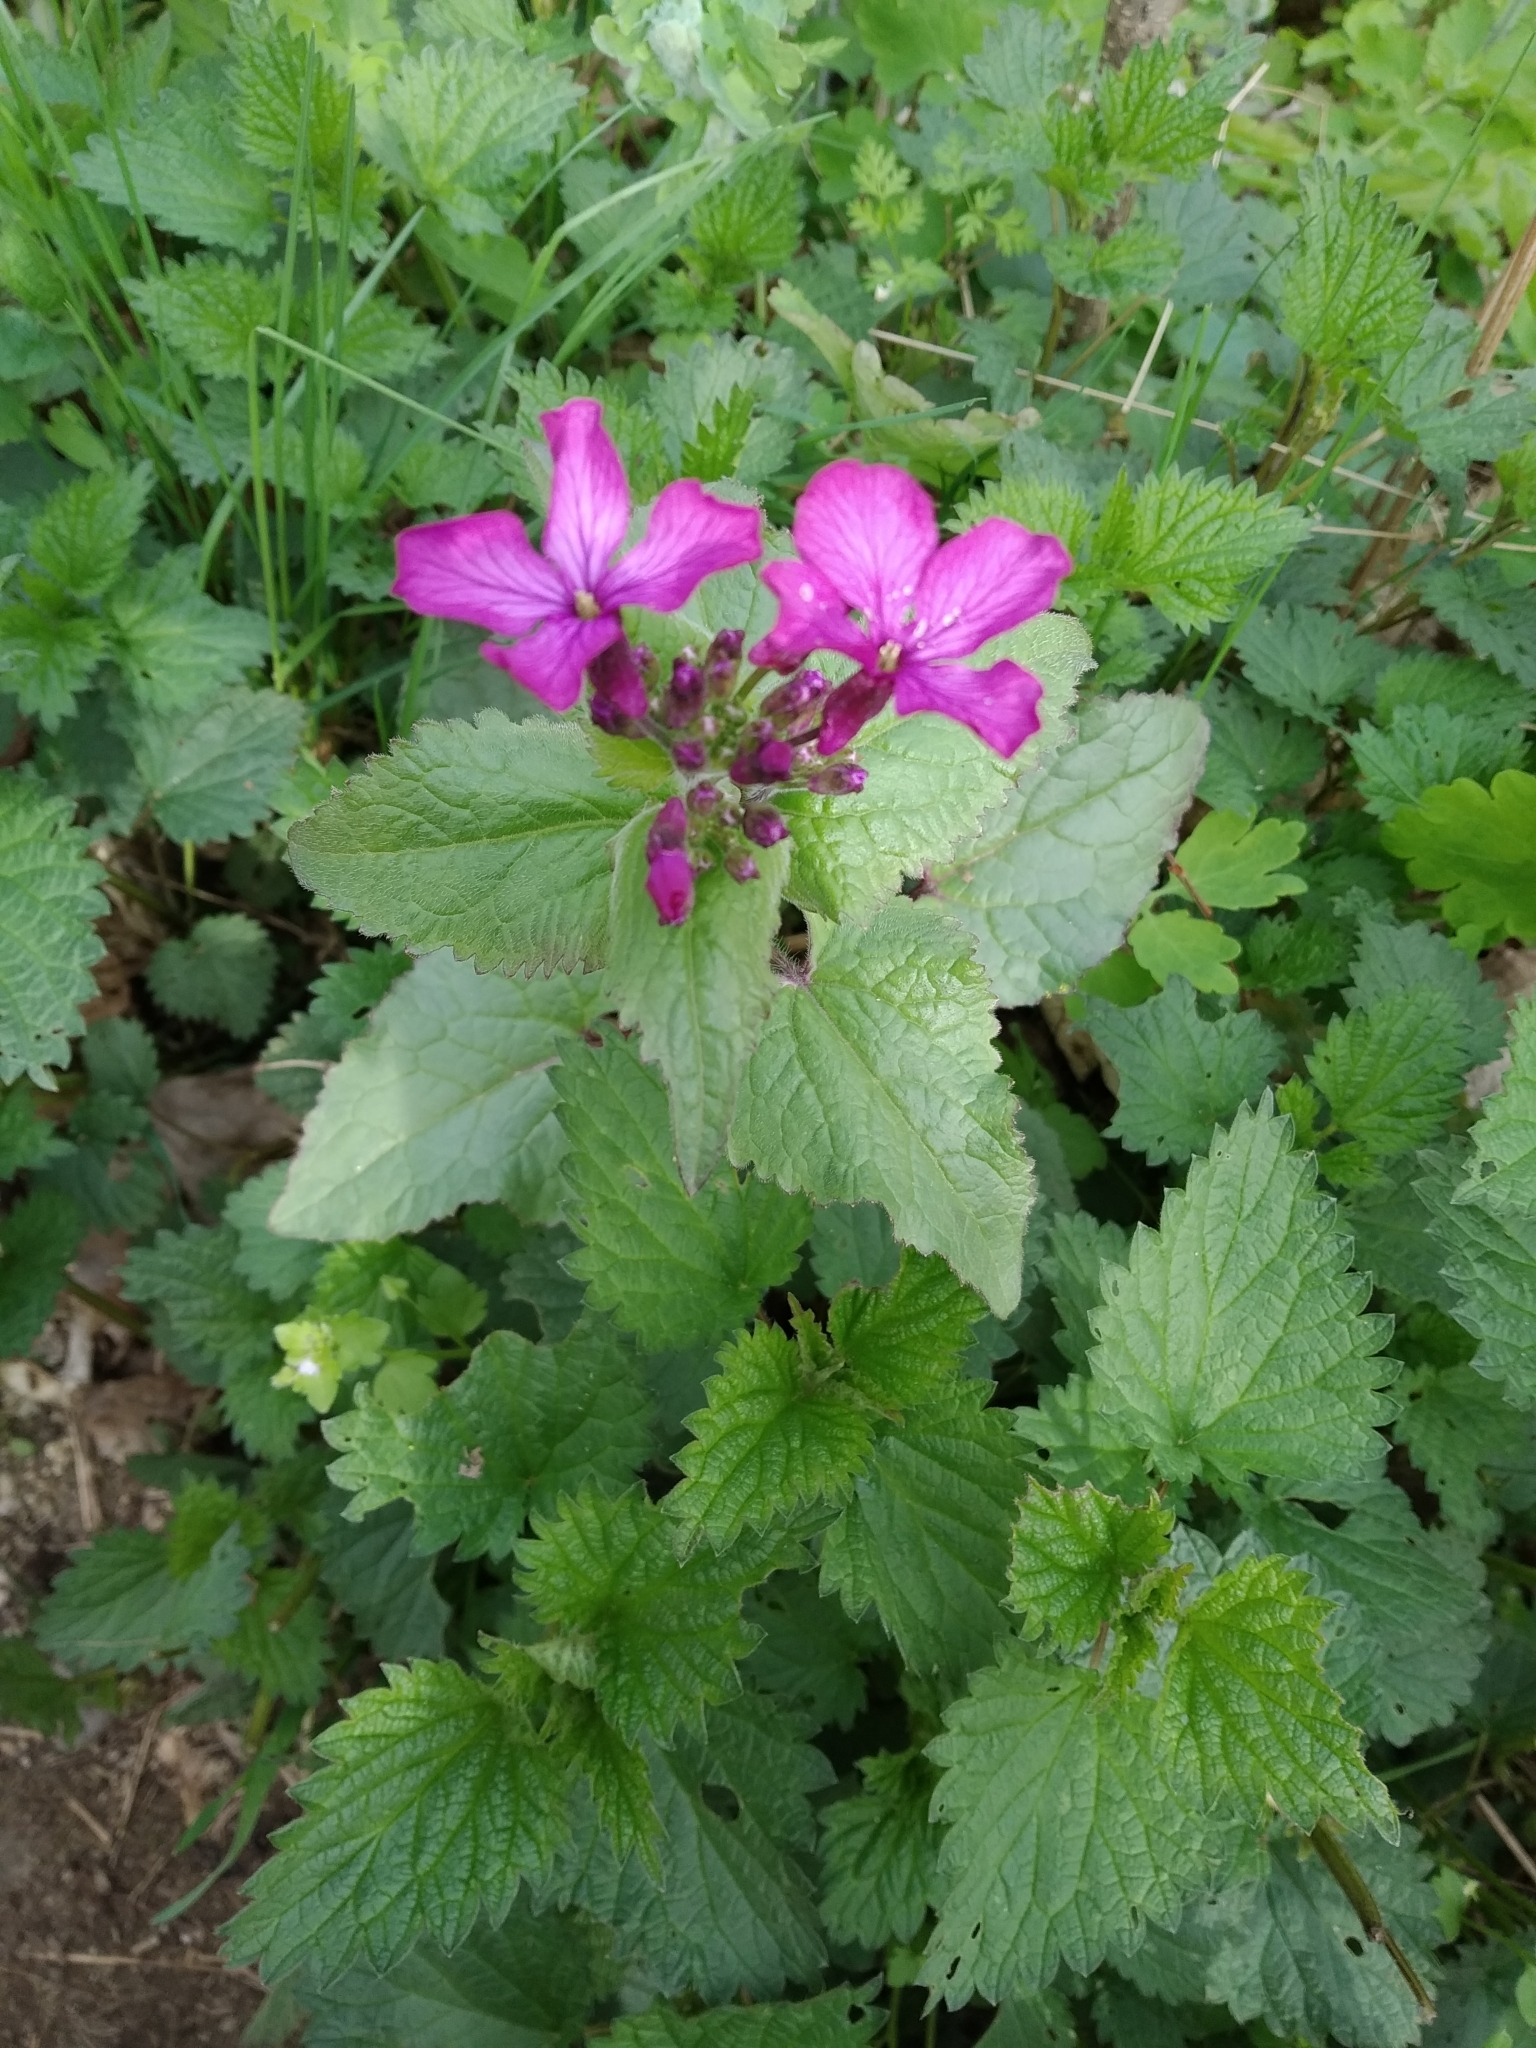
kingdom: Plantae
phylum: Tracheophyta
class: Magnoliopsida
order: Brassicales
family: Brassicaceae
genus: Lunaria
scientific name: Lunaria annua
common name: Honesty
